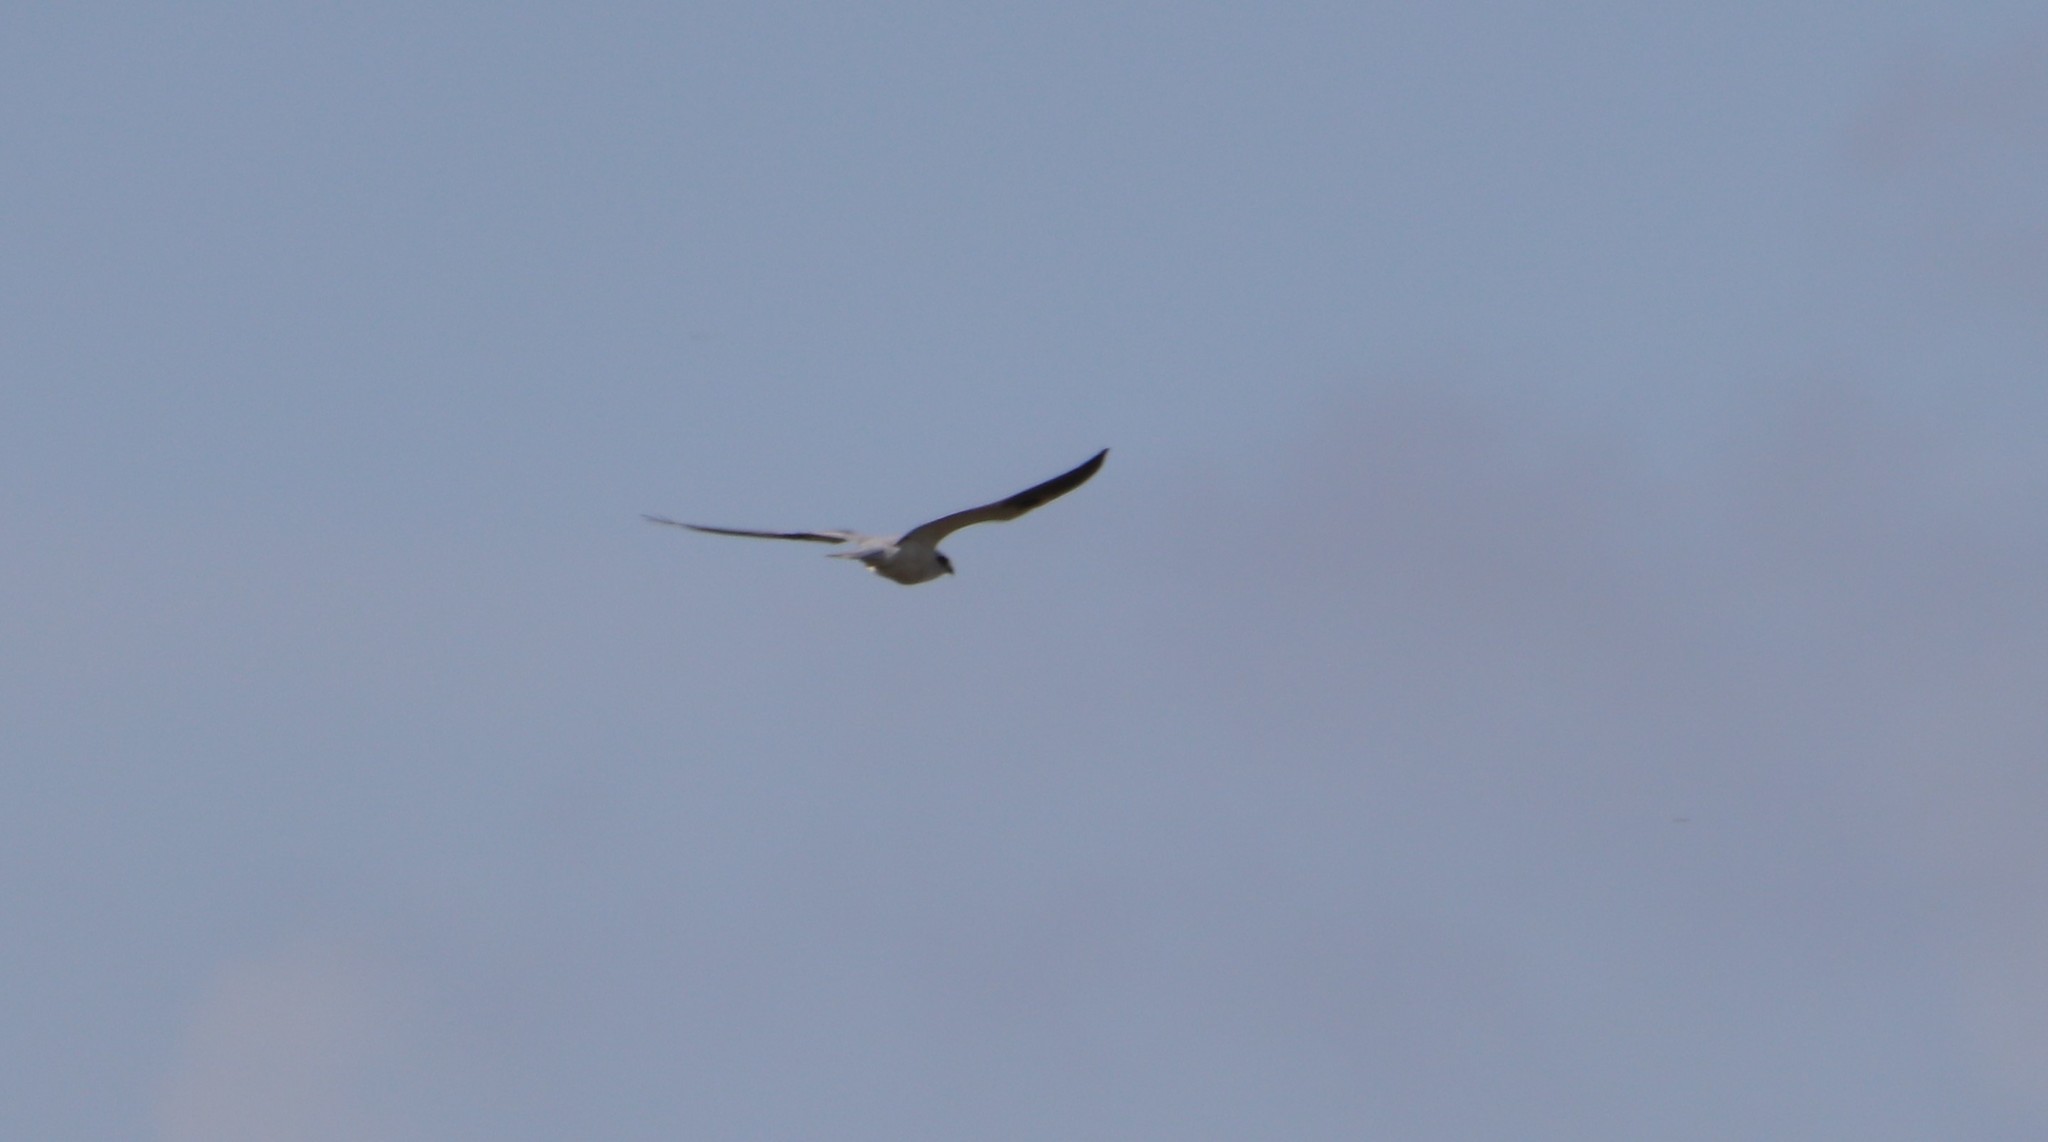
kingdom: Animalia
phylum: Chordata
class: Aves
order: Accipitriformes
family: Accipitridae
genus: Elanus
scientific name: Elanus leucurus
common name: White-tailed kite
